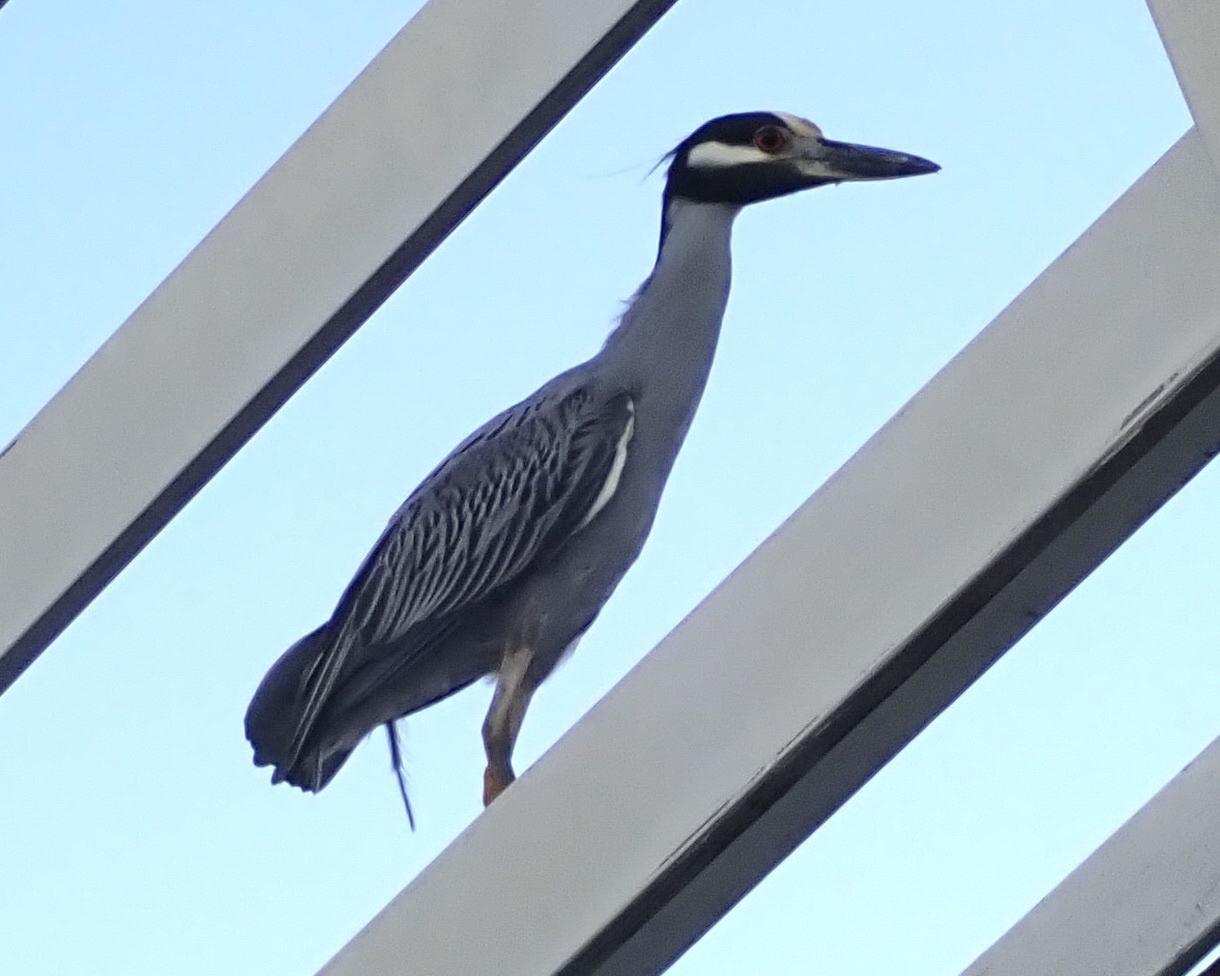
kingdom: Animalia
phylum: Chordata
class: Aves
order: Pelecaniformes
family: Ardeidae
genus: Nyctanassa
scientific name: Nyctanassa violacea
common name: Yellow-crowned night heron
